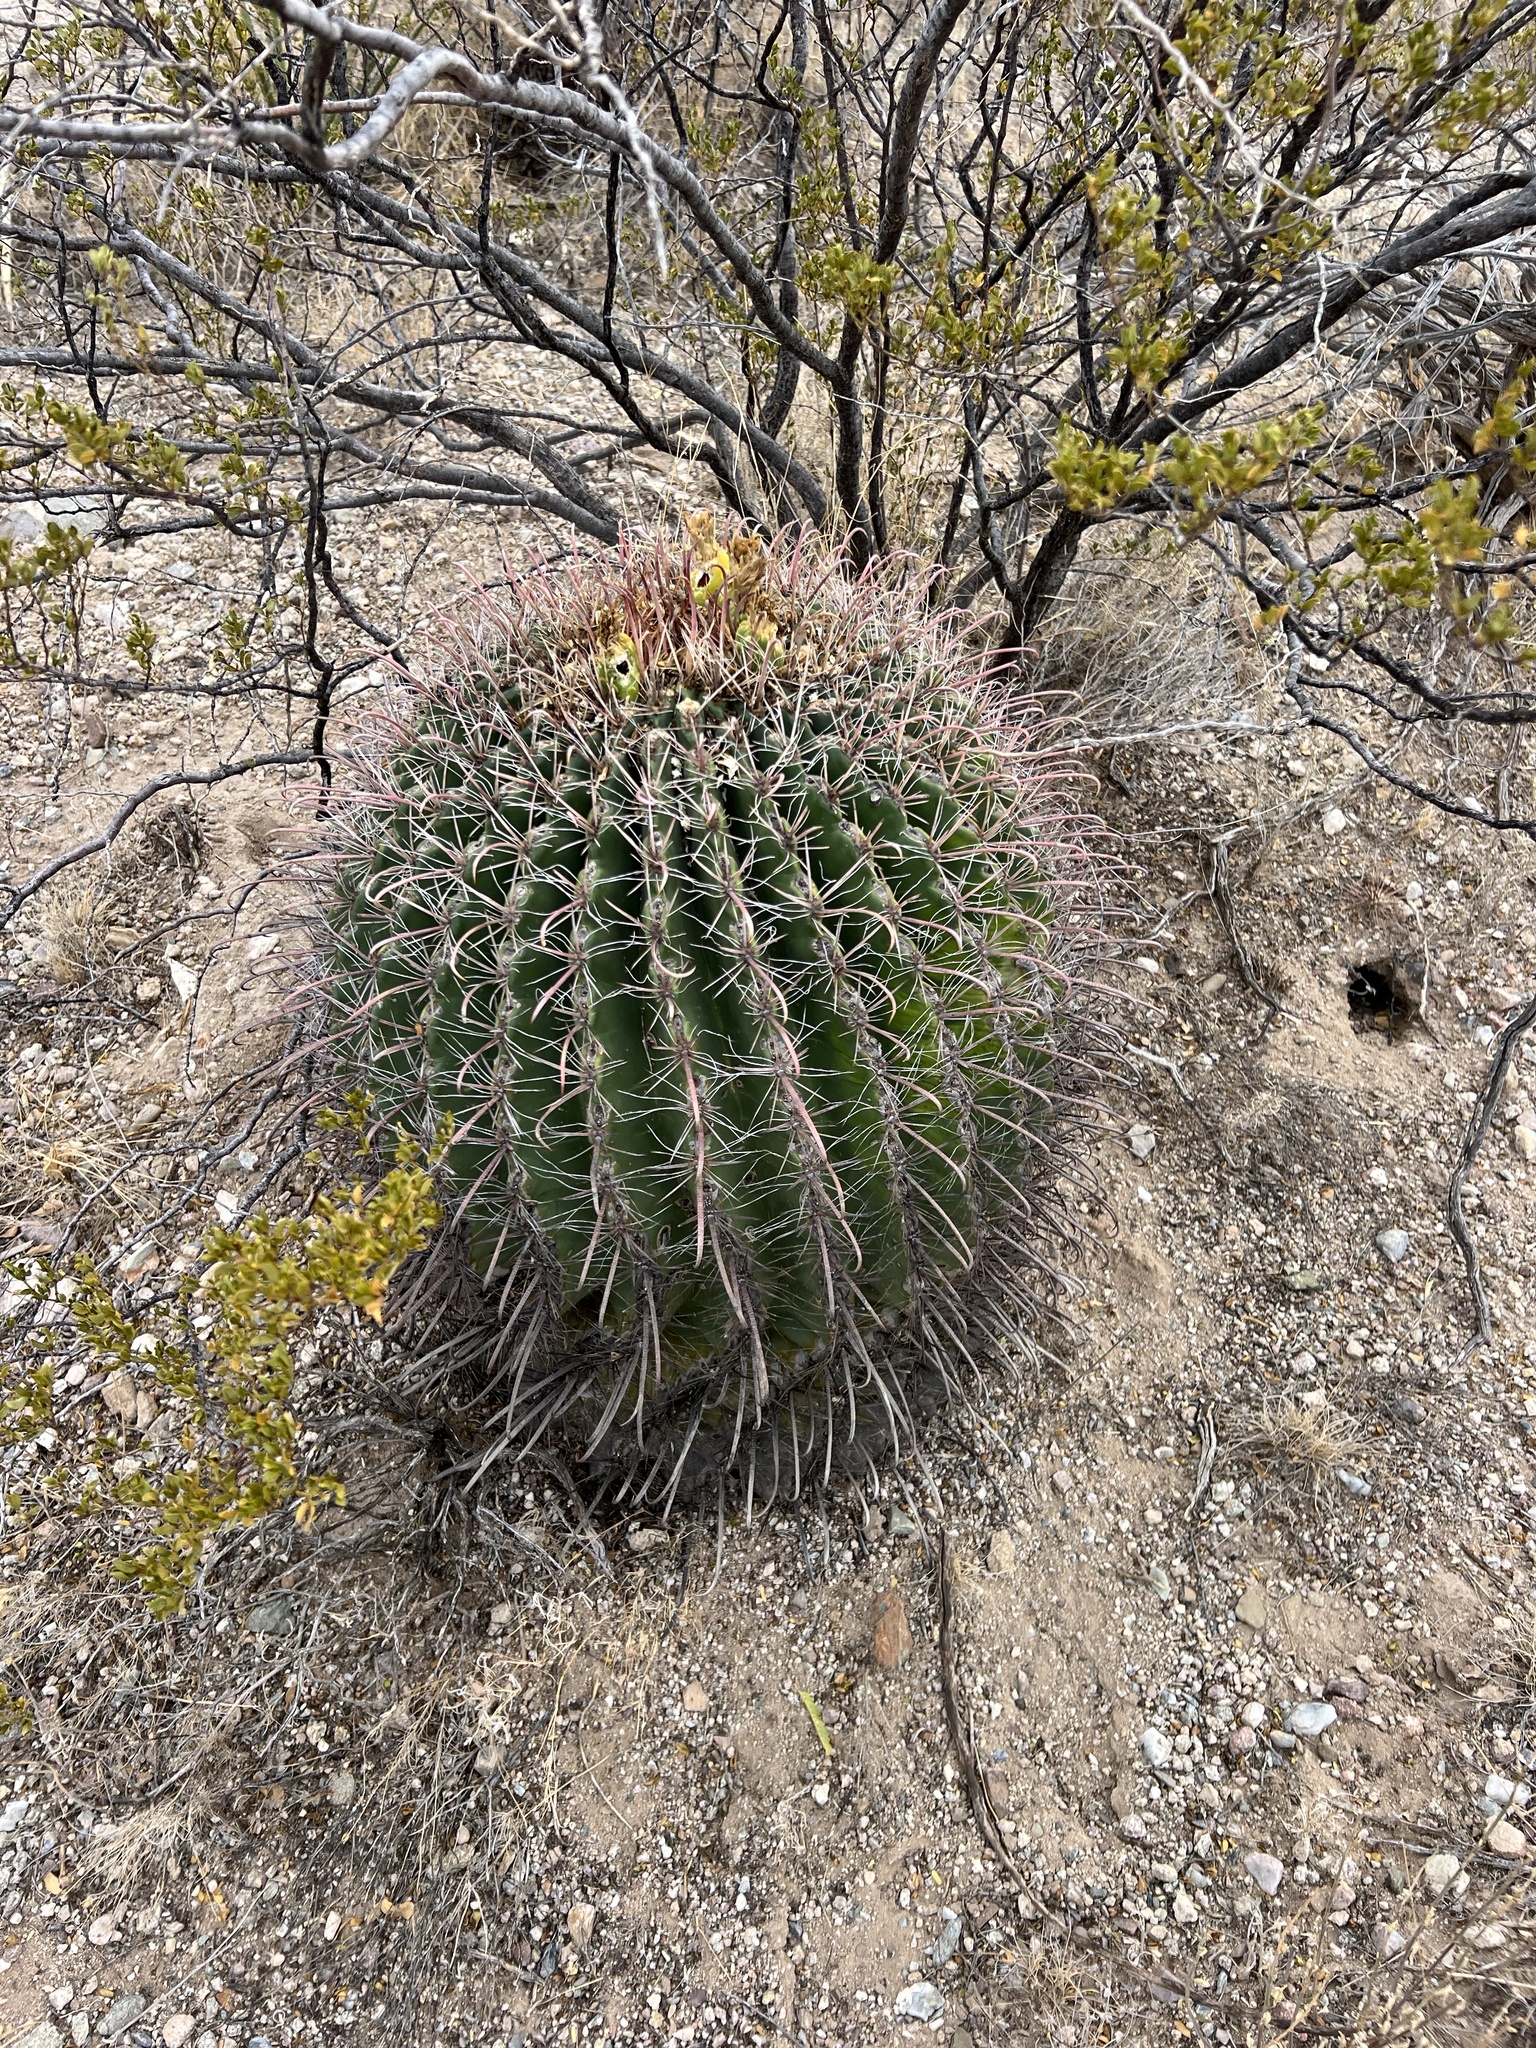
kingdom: Plantae
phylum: Tracheophyta
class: Magnoliopsida
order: Caryophyllales
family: Cactaceae
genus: Ferocactus
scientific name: Ferocactus wislizeni
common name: Candy barrel cactus
